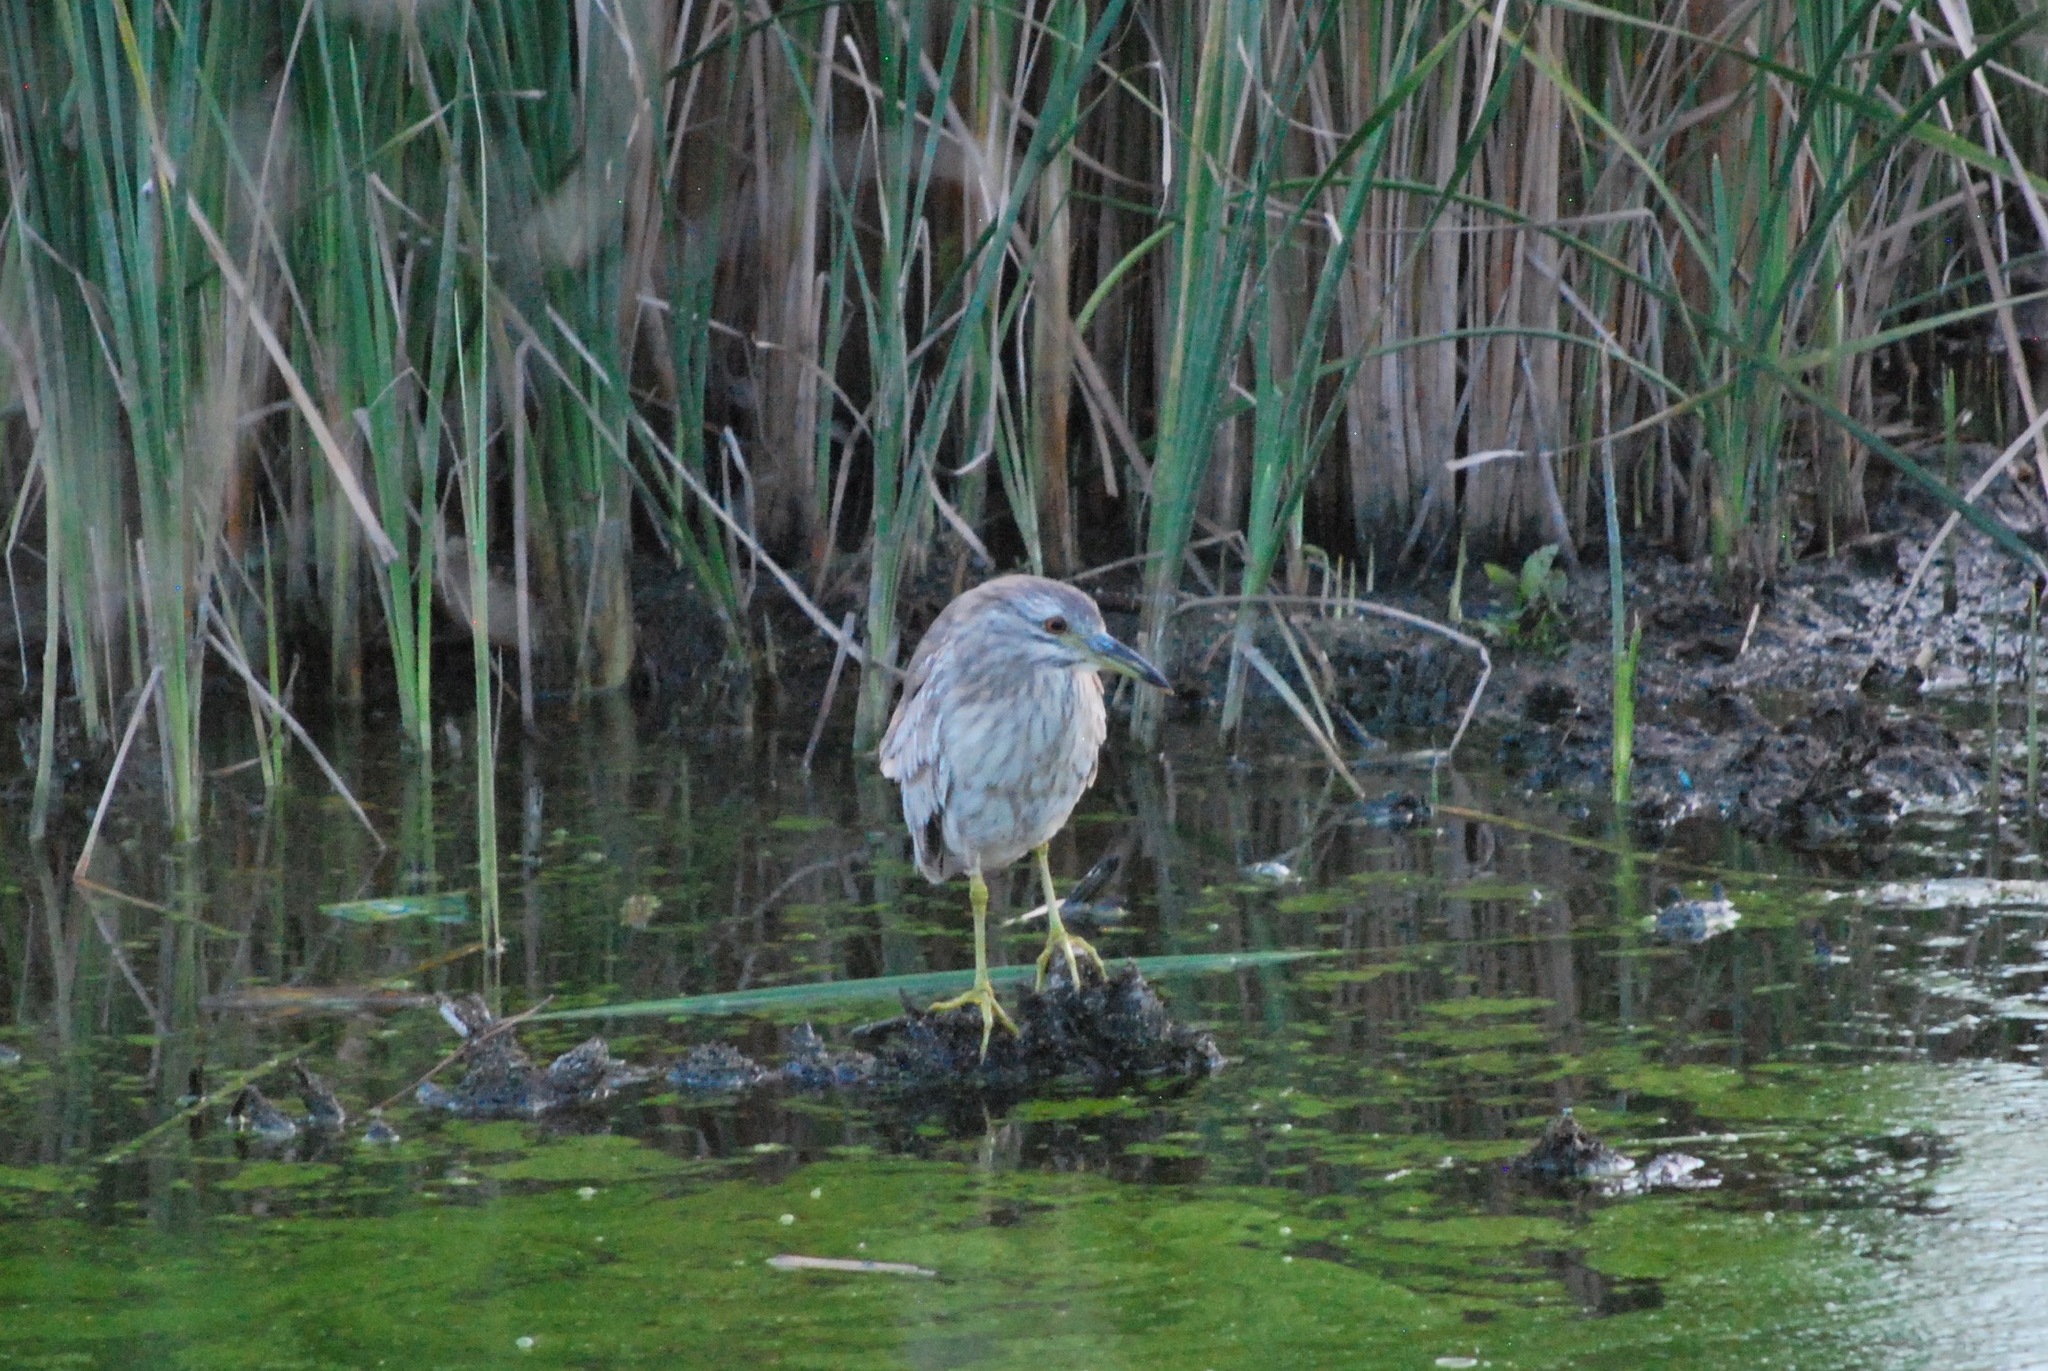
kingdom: Animalia
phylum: Chordata
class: Aves
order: Pelecaniformes
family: Ardeidae
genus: Nycticorax
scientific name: Nycticorax nycticorax
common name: Black-crowned night heron
